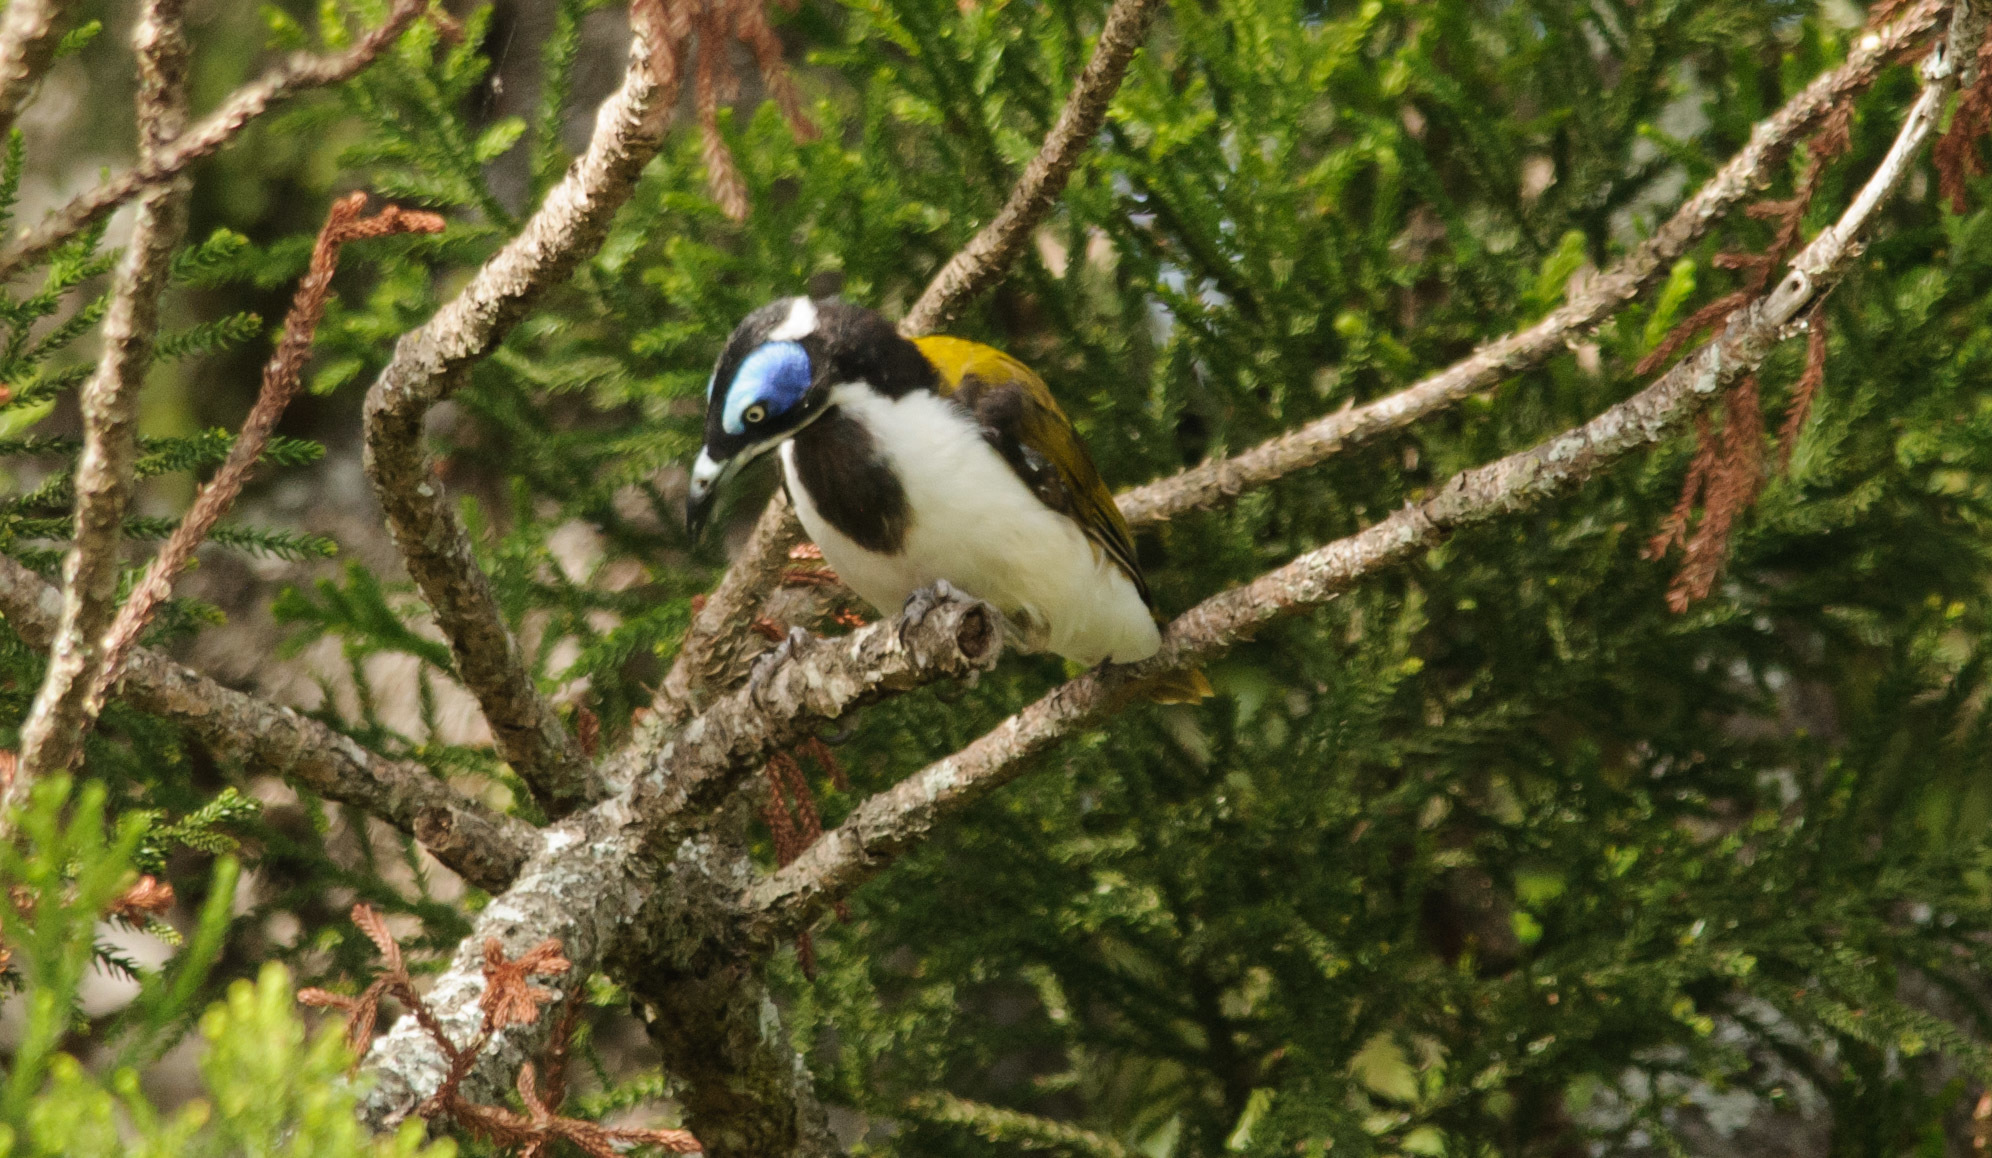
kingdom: Animalia
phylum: Chordata
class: Aves
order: Passeriformes
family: Meliphagidae
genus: Entomyzon
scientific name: Entomyzon cyanotis
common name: Blue-faced honeyeater
